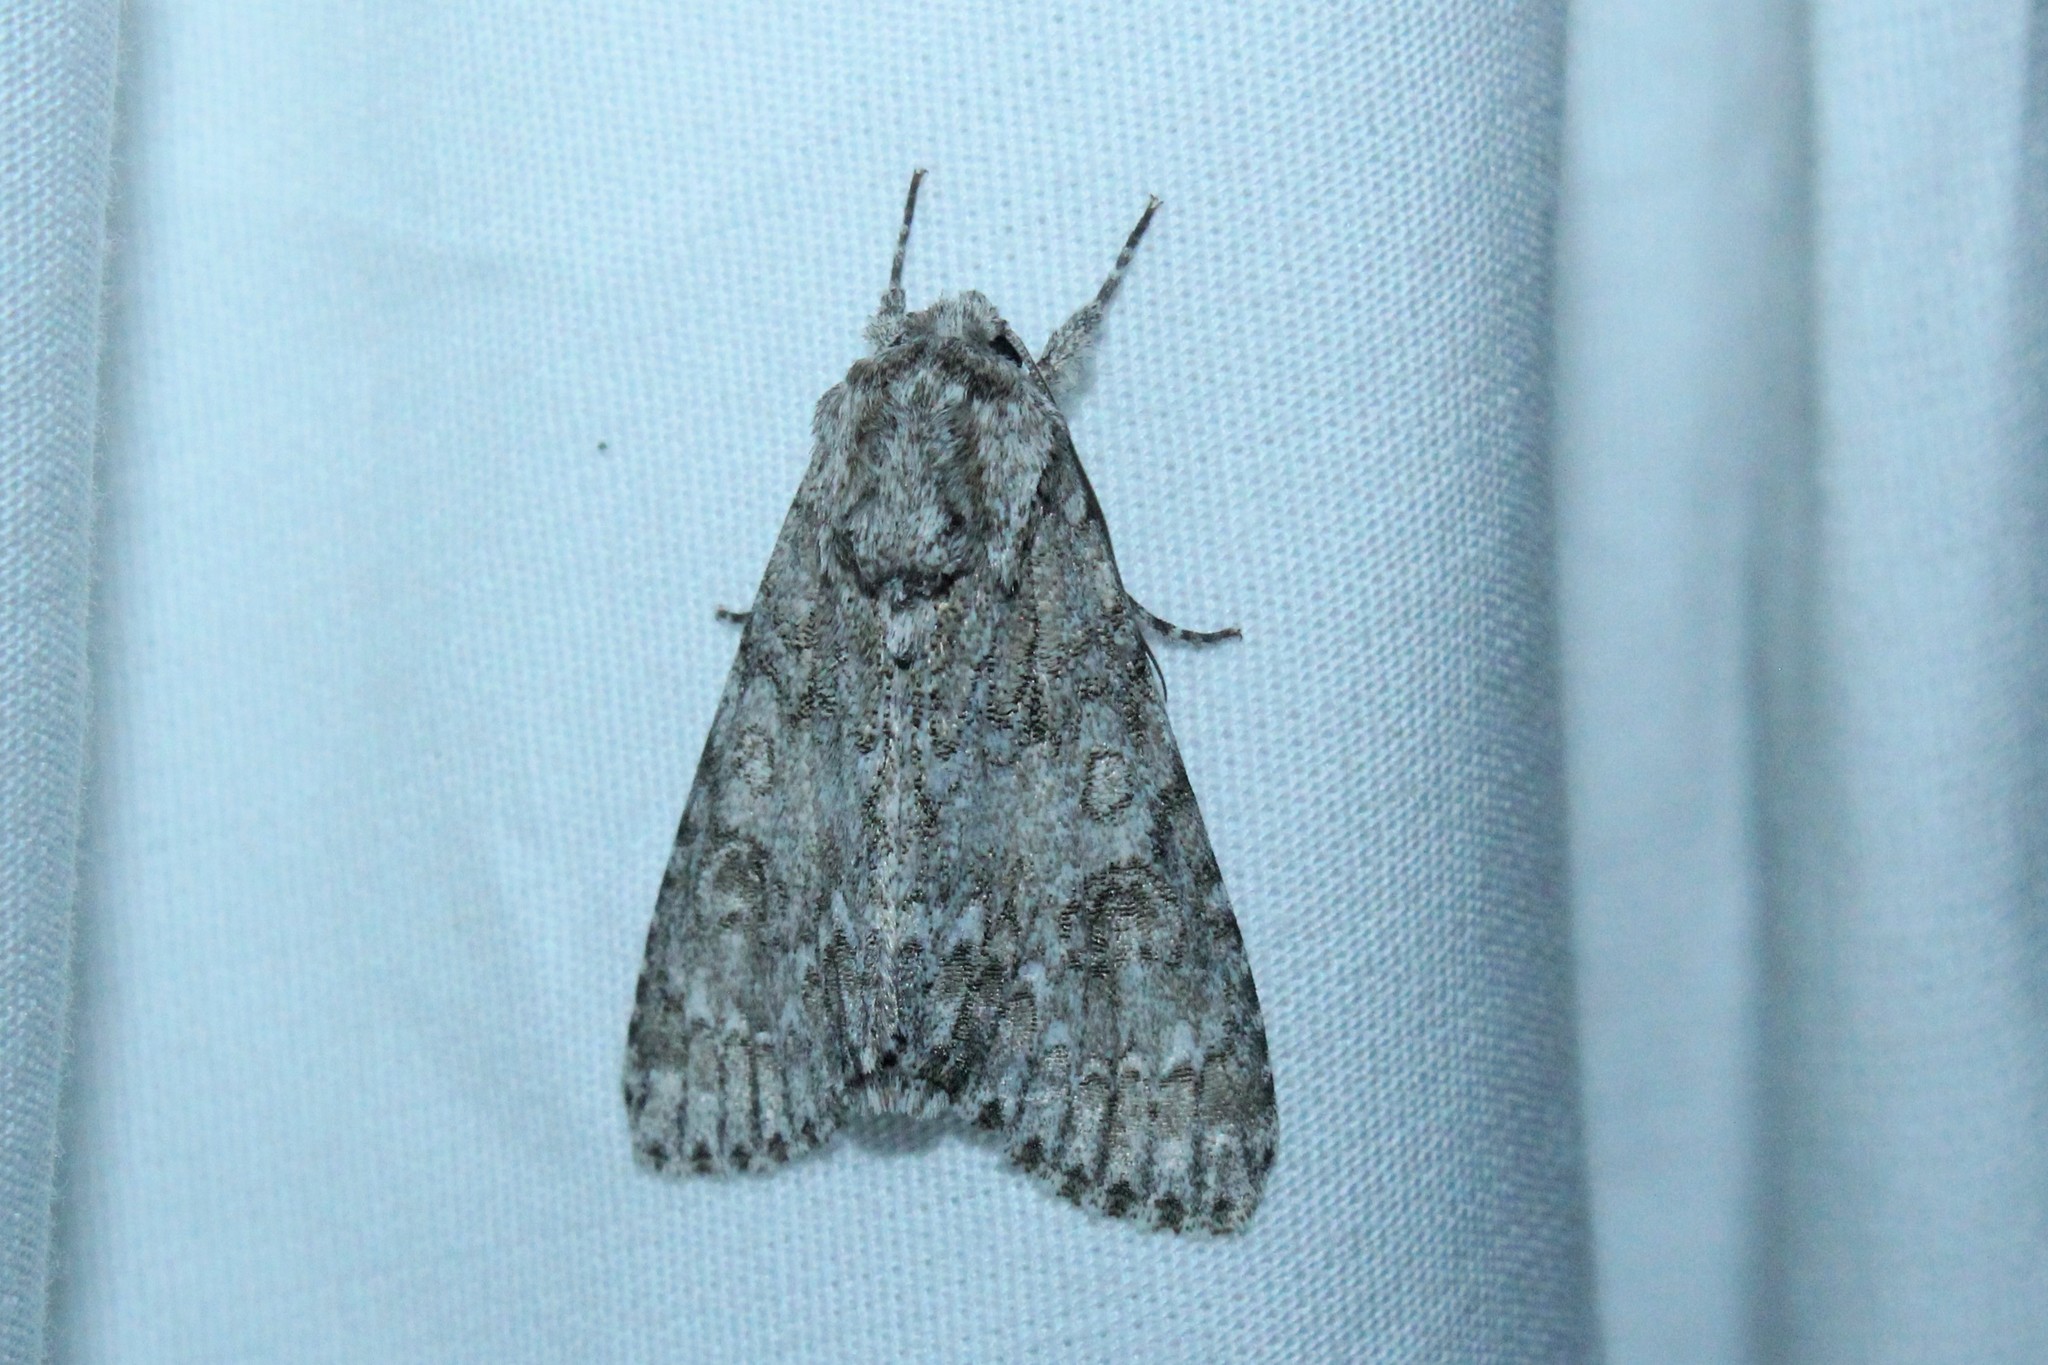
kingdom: Animalia
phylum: Arthropoda
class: Insecta
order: Lepidoptera
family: Noctuidae
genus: Acronicta
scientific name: Acronicta americana
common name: American dagger
